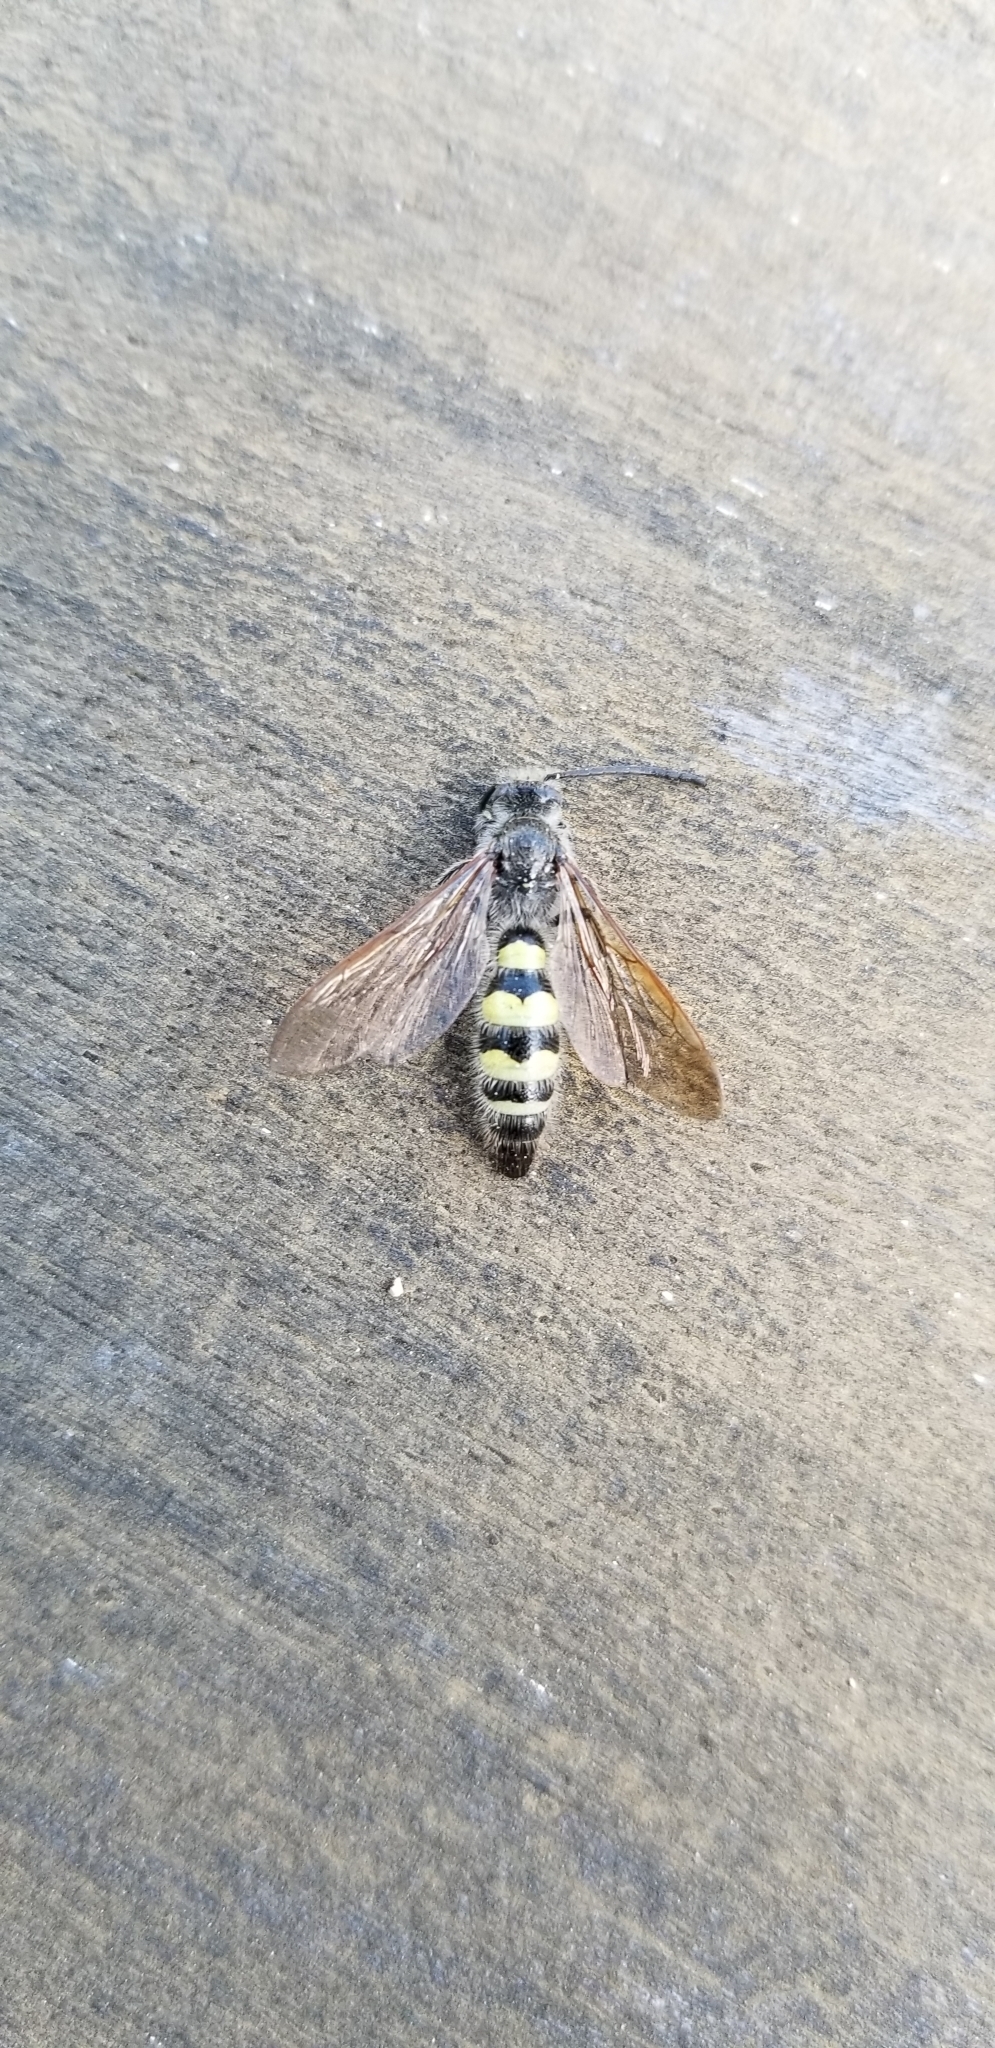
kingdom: Animalia
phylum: Arthropoda
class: Insecta
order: Hymenoptera
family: Scoliidae
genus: Dielis
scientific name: Dielis tolteca
